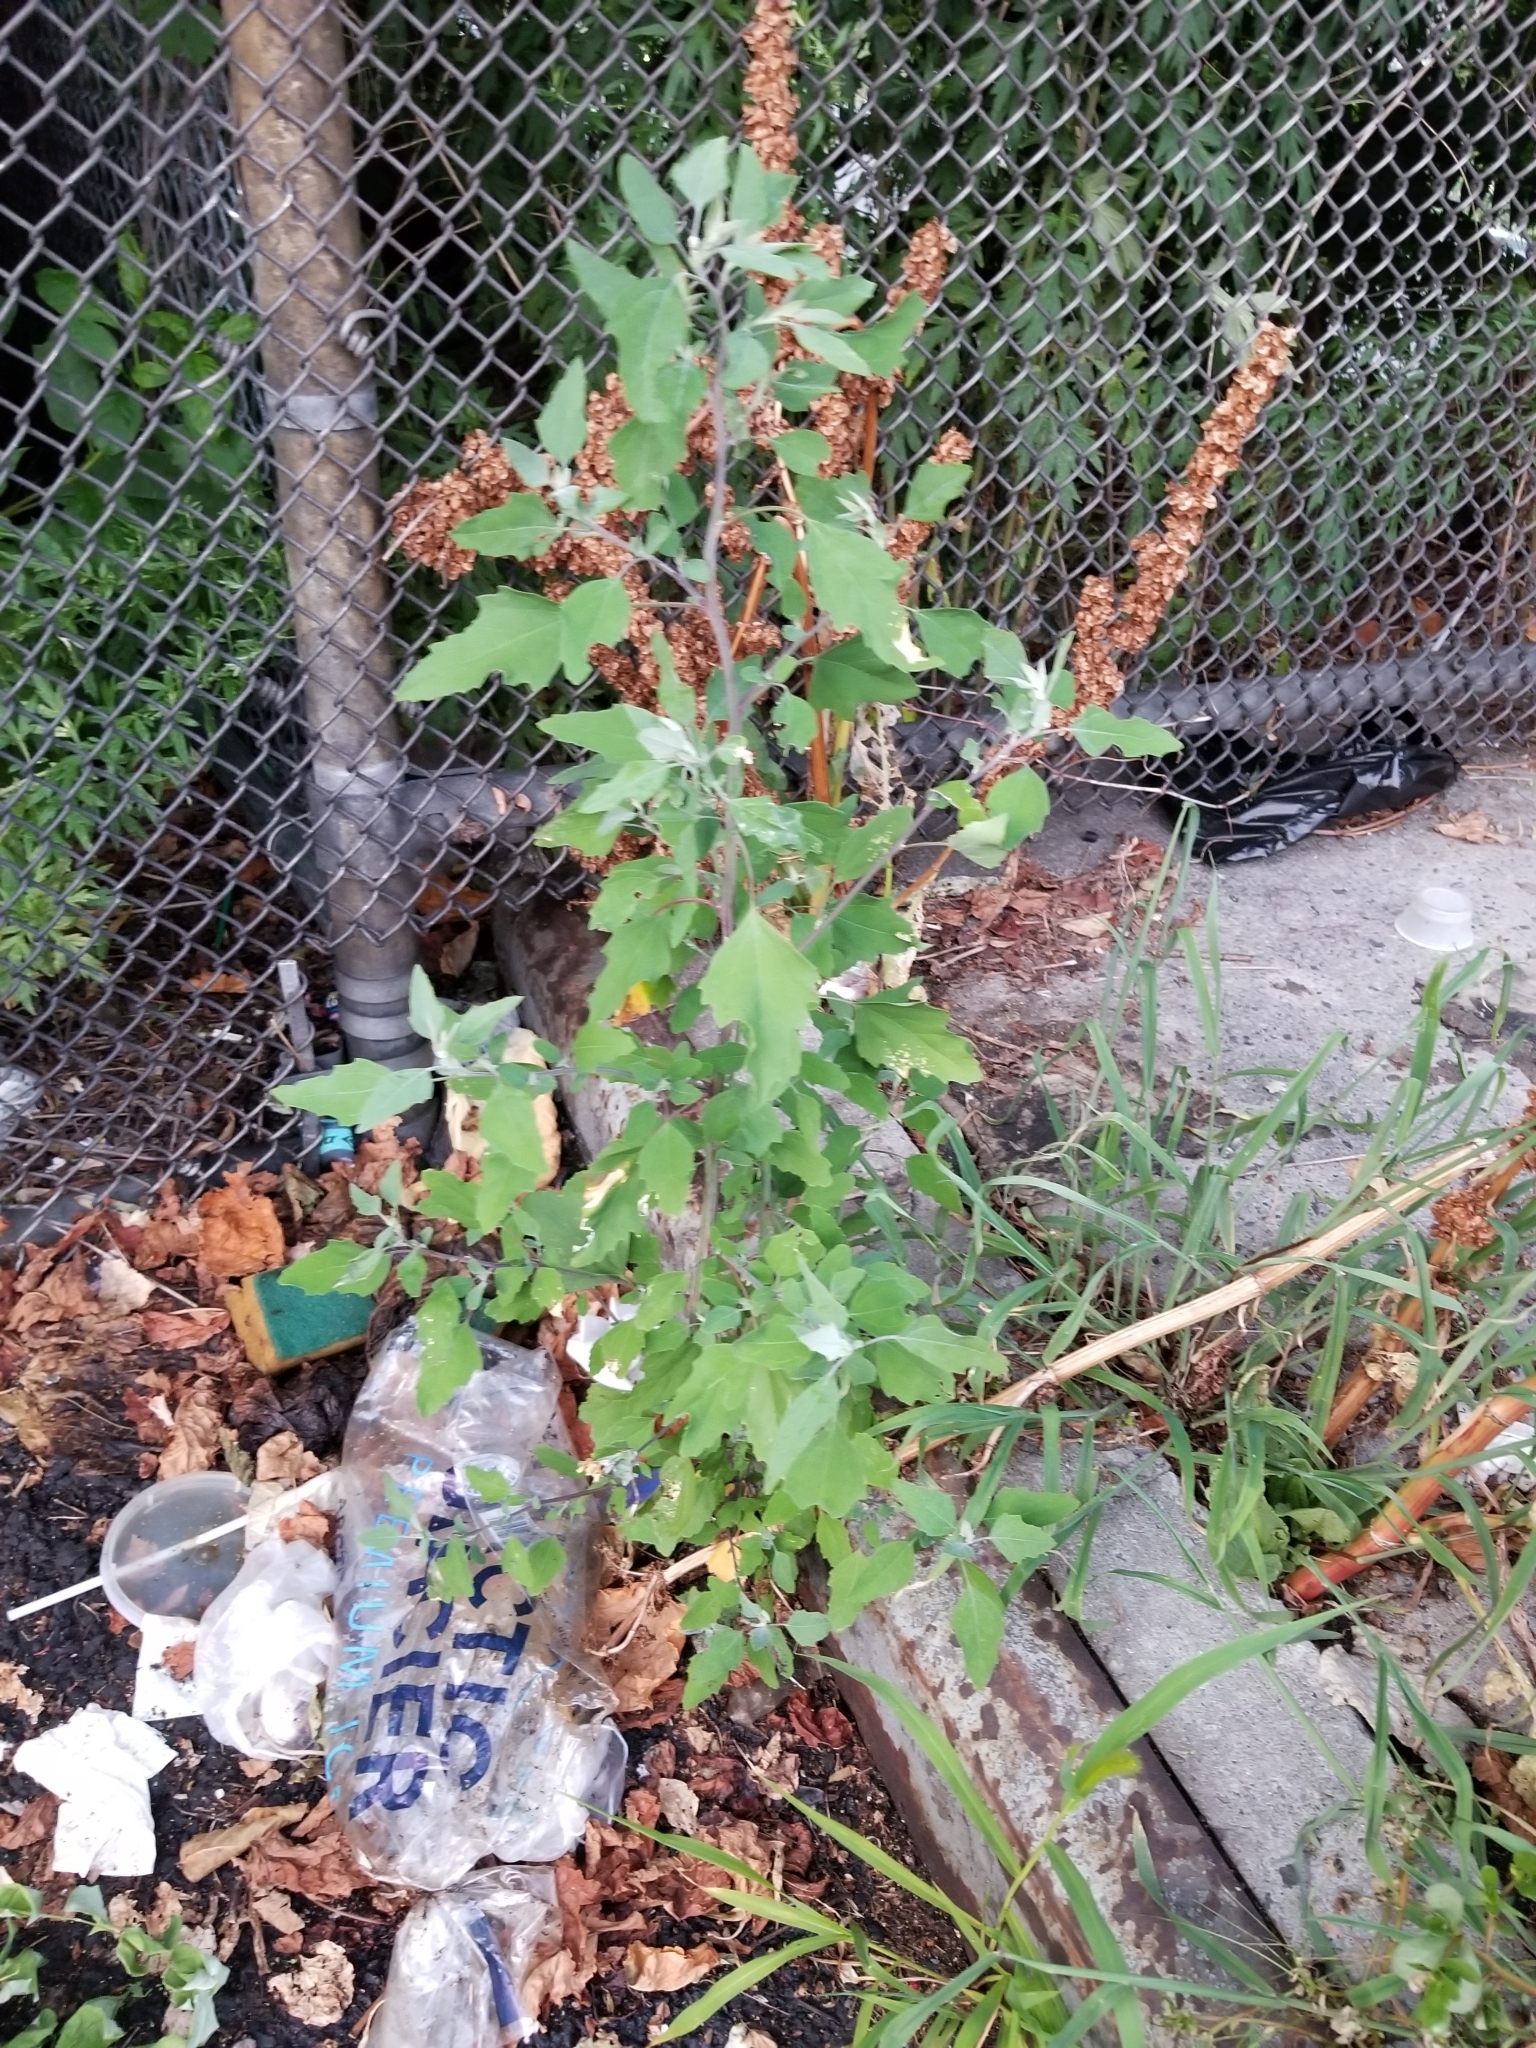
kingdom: Plantae
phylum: Tracheophyta
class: Magnoliopsida
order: Caryophyllales
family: Amaranthaceae
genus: Chenopodium
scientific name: Chenopodium album
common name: Fat-hen
